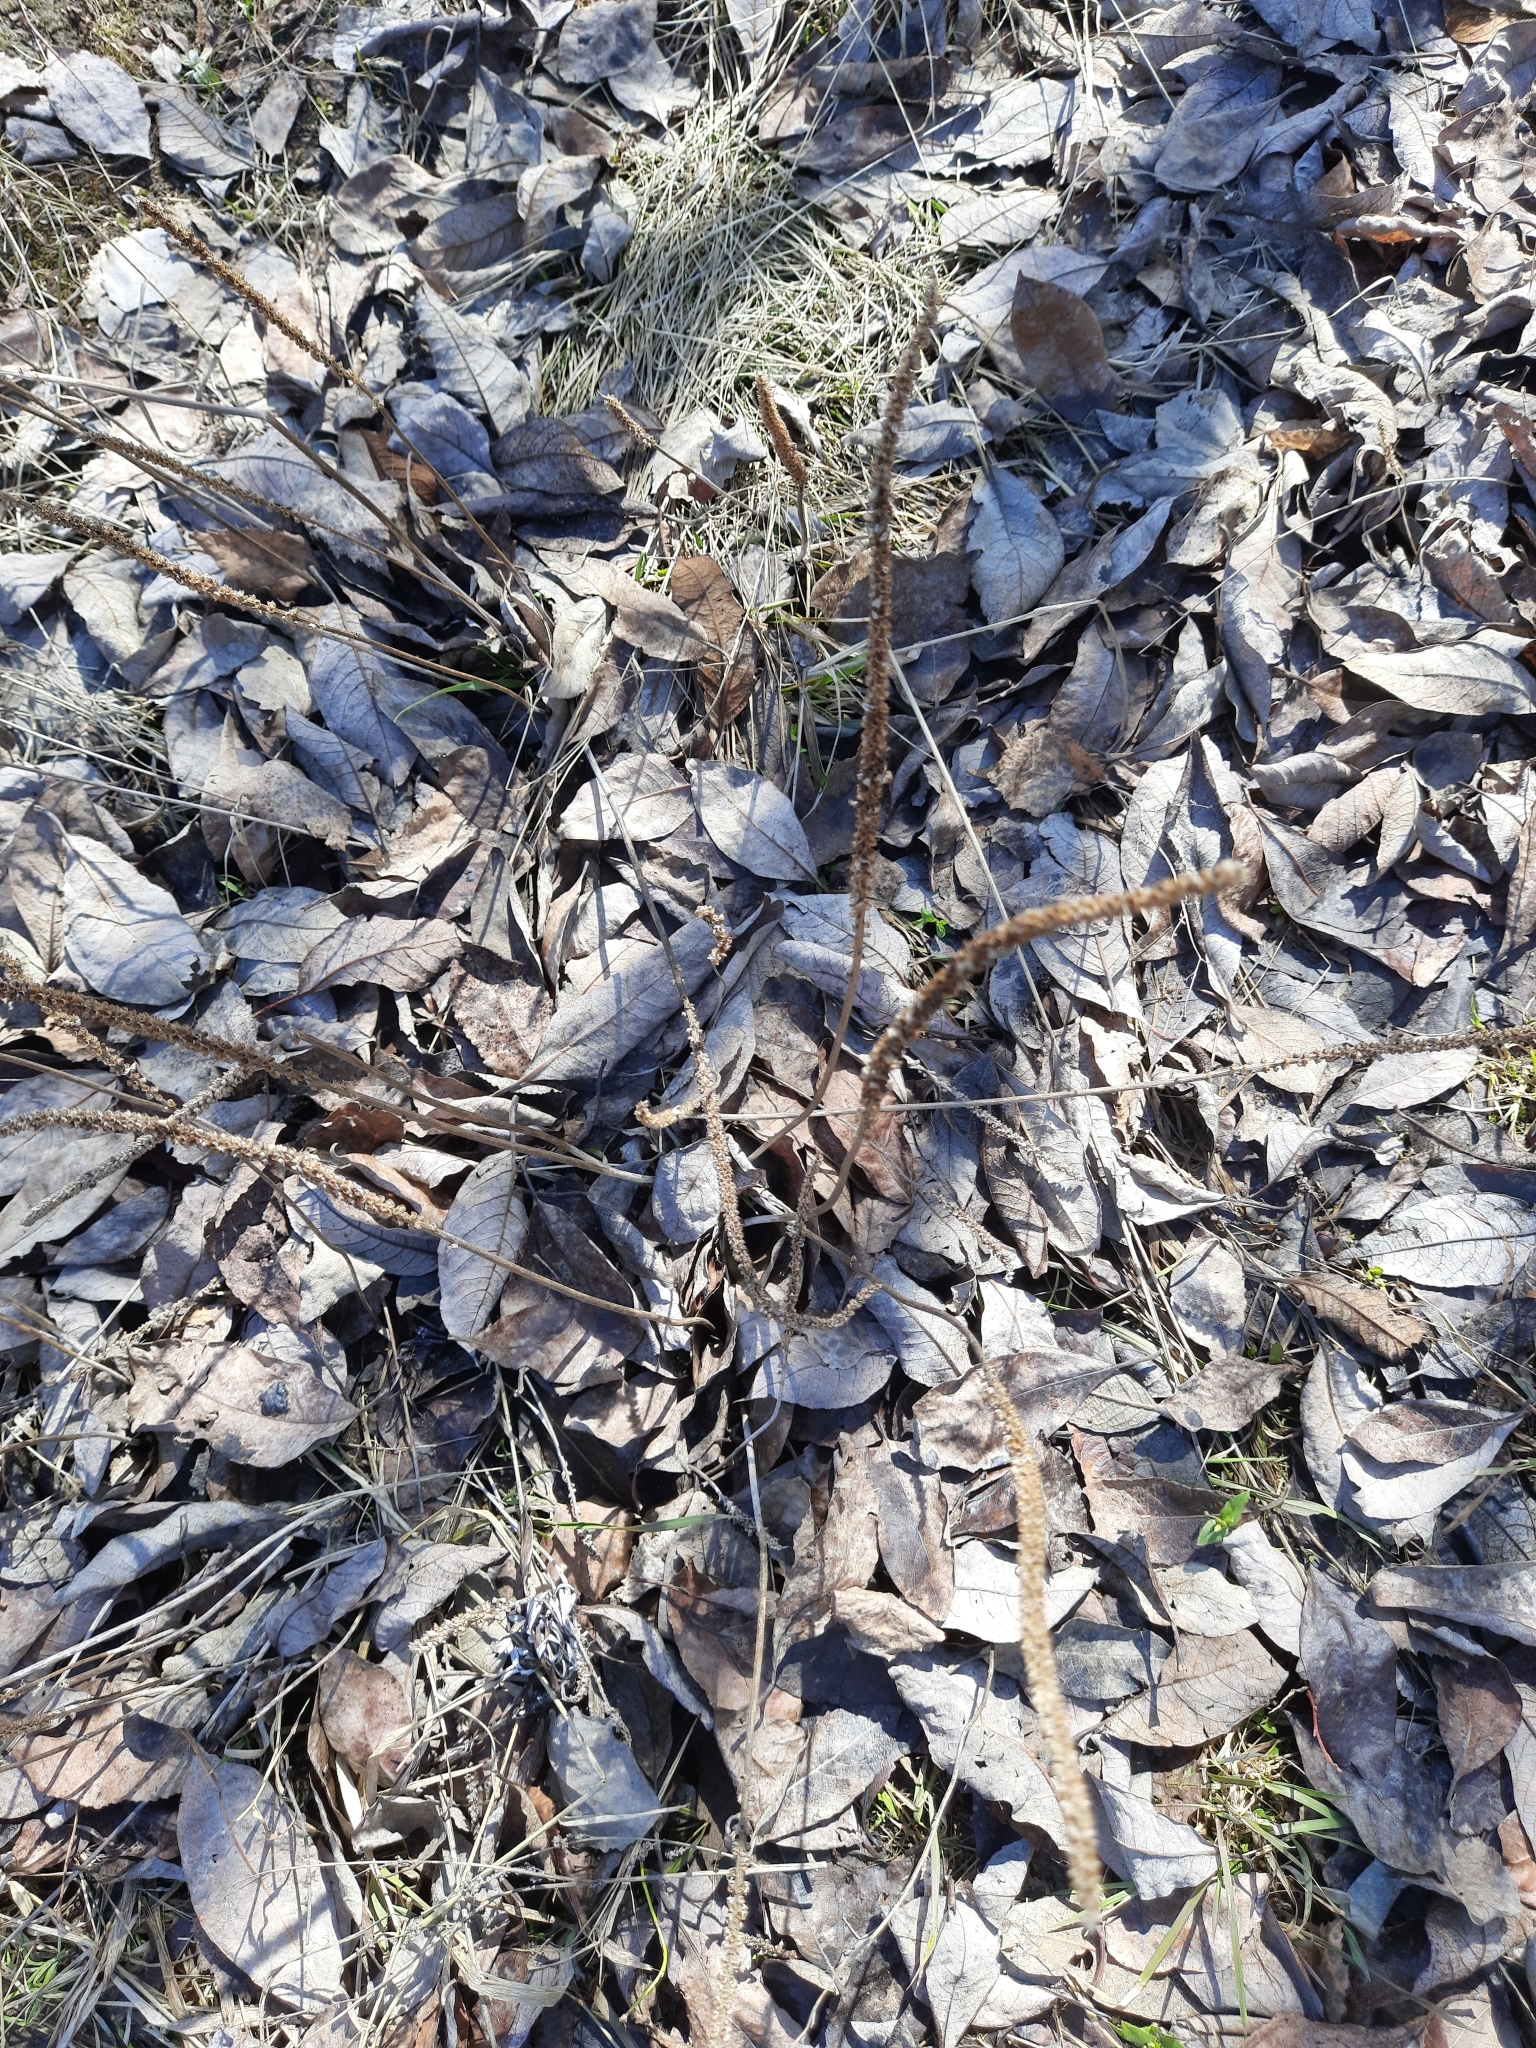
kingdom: Plantae
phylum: Tracheophyta
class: Magnoliopsida
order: Lamiales
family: Plantaginaceae
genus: Plantago
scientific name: Plantago major
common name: Common plantain
